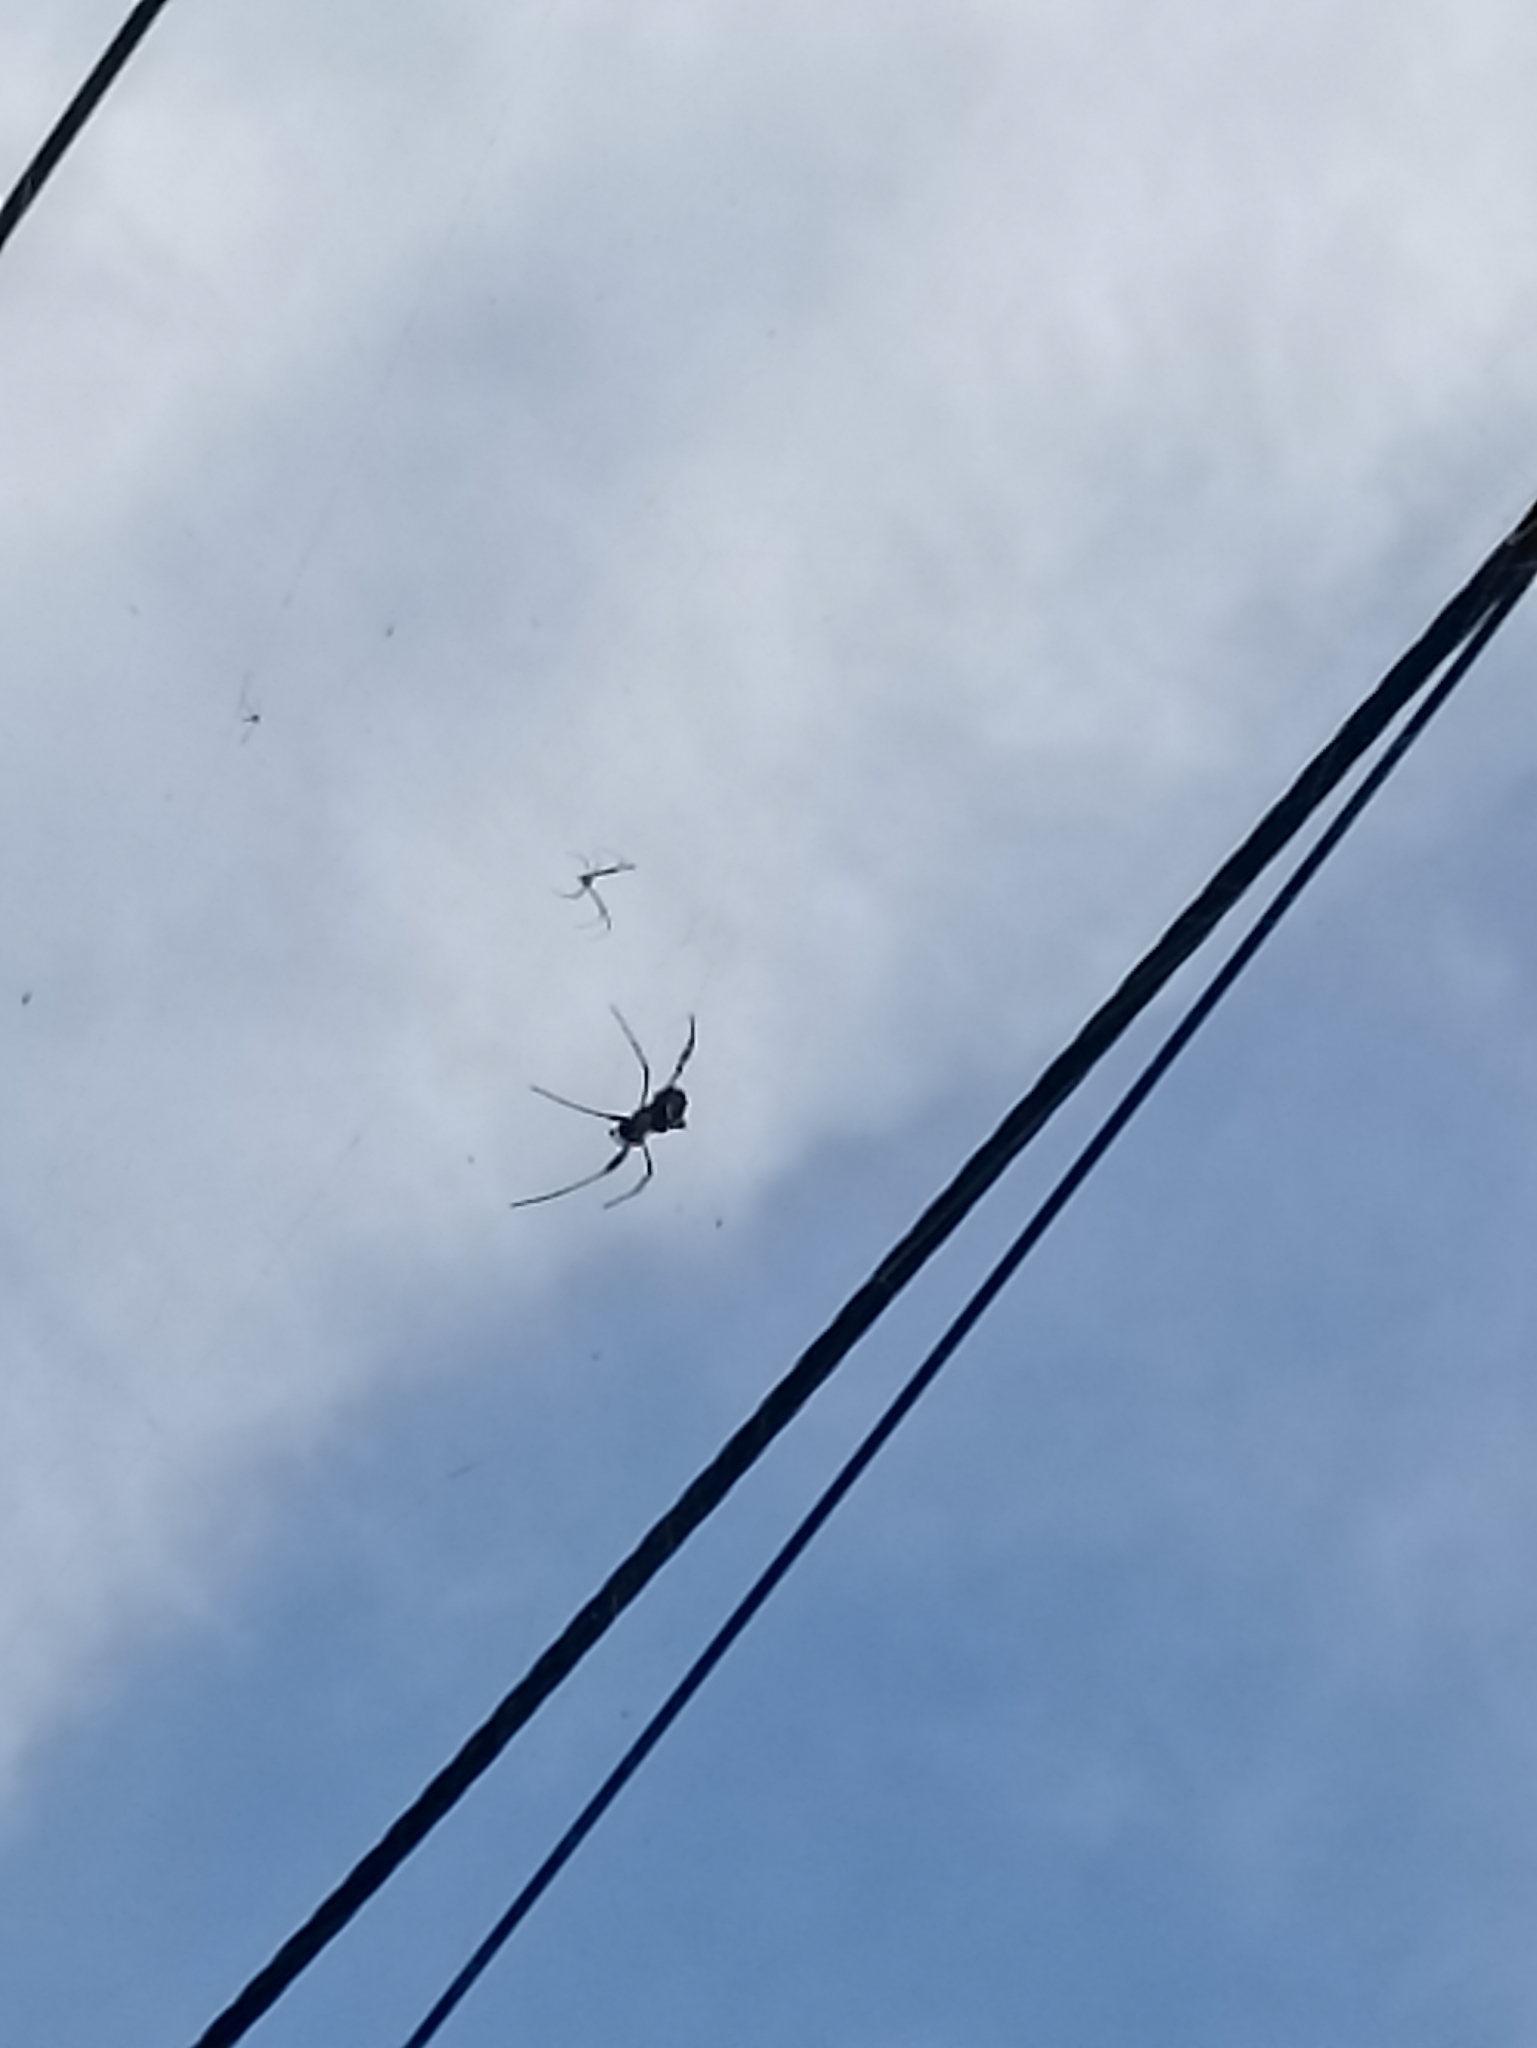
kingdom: Animalia
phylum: Arthropoda
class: Arachnida
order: Araneae
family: Araneidae
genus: Trichonephila
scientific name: Trichonephila clavipes
